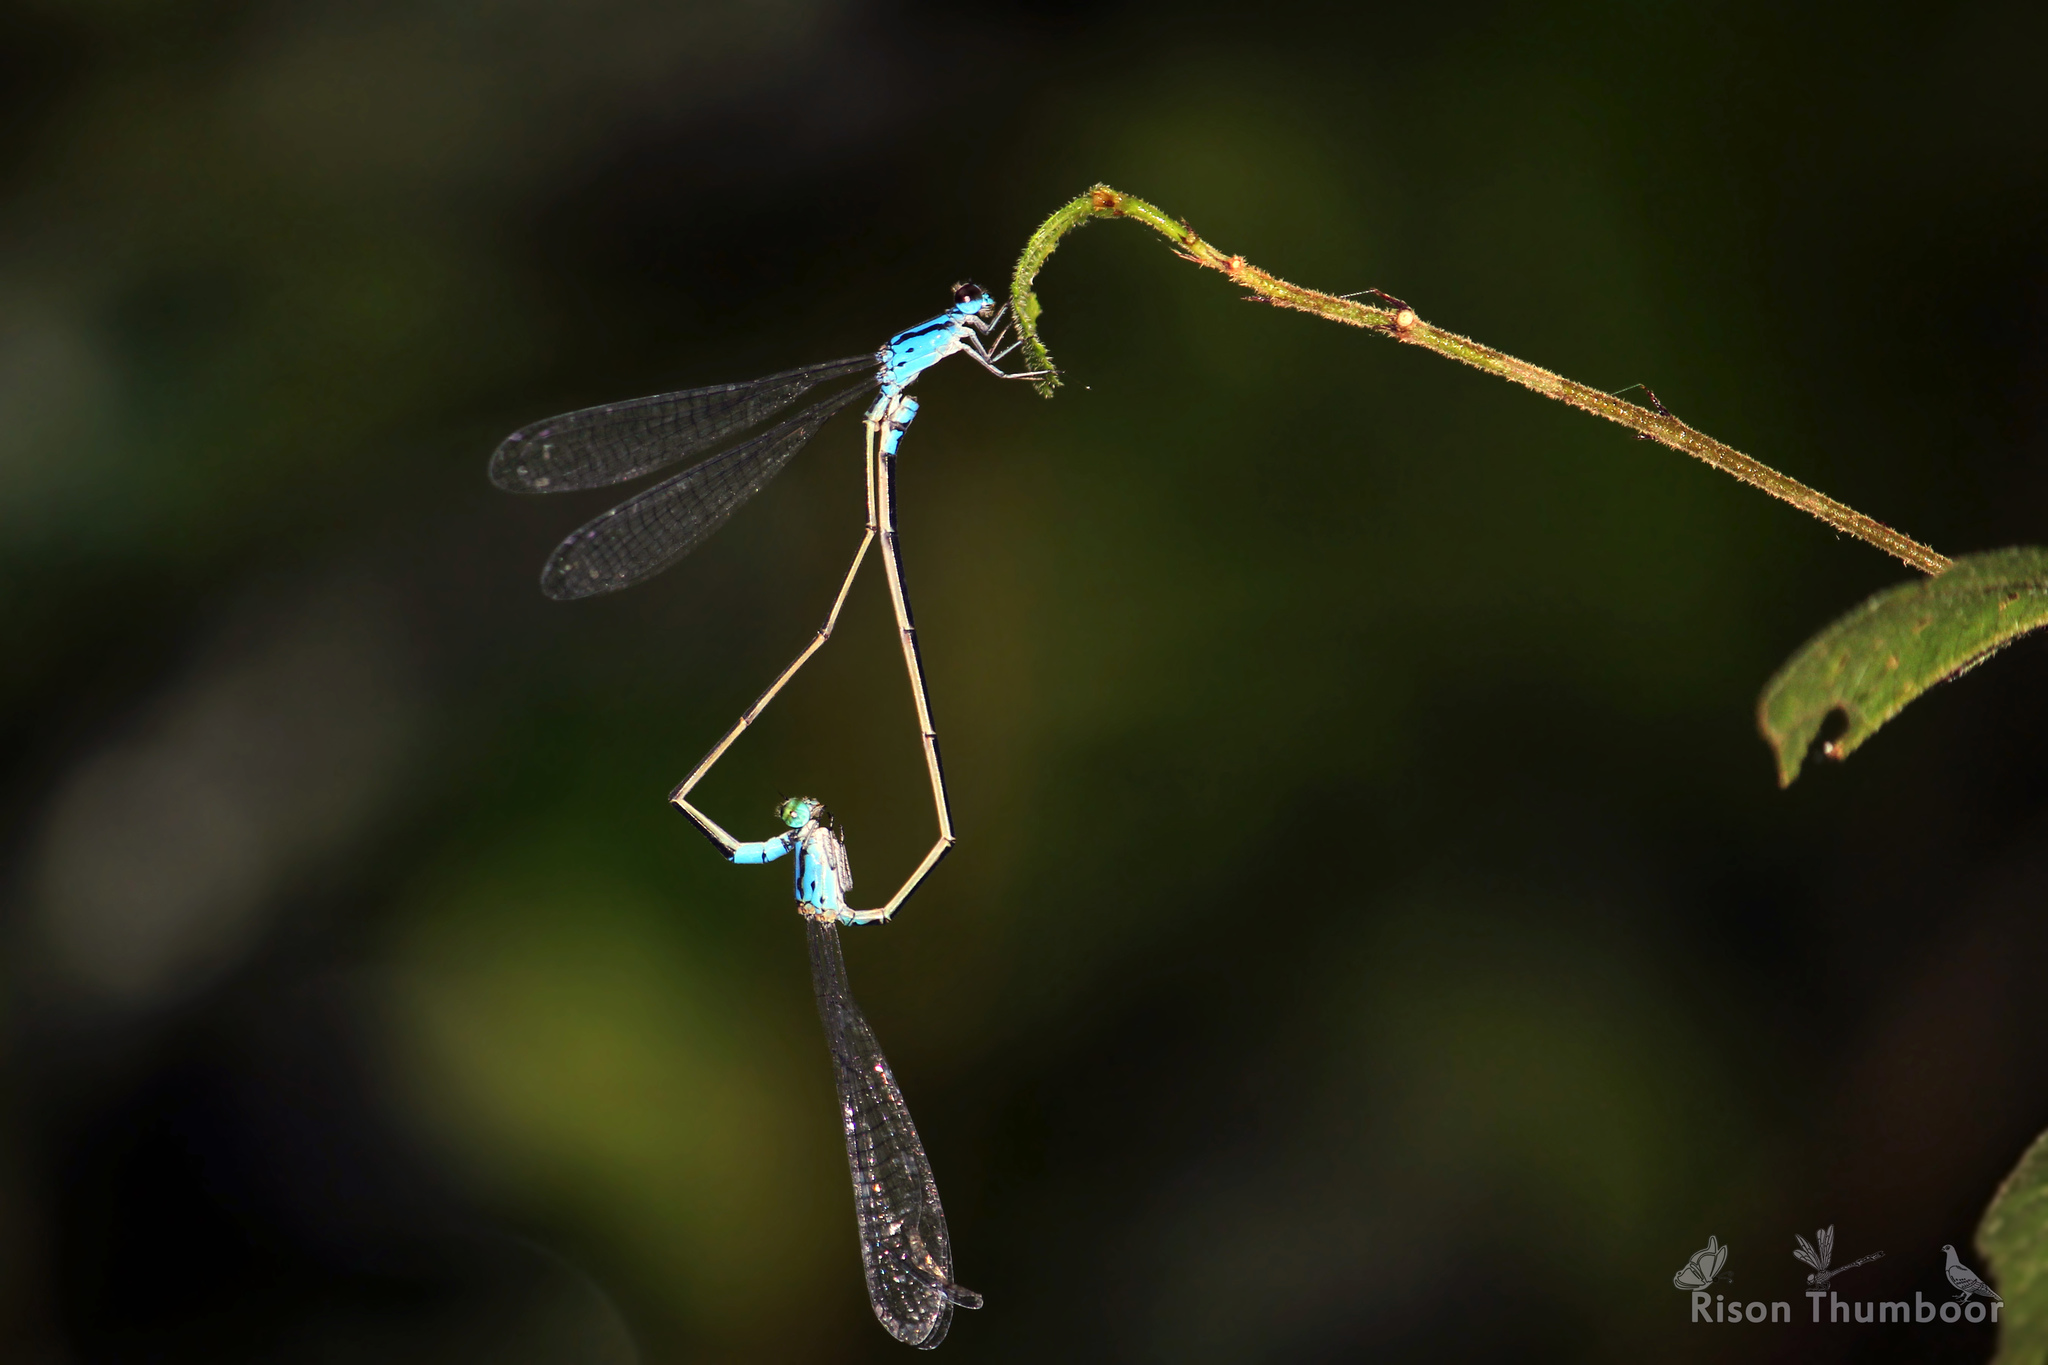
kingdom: Animalia
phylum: Arthropoda
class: Insecta
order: Odonata
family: Coenagrionidae
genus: Archibasis
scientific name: Archibasis oscillans
